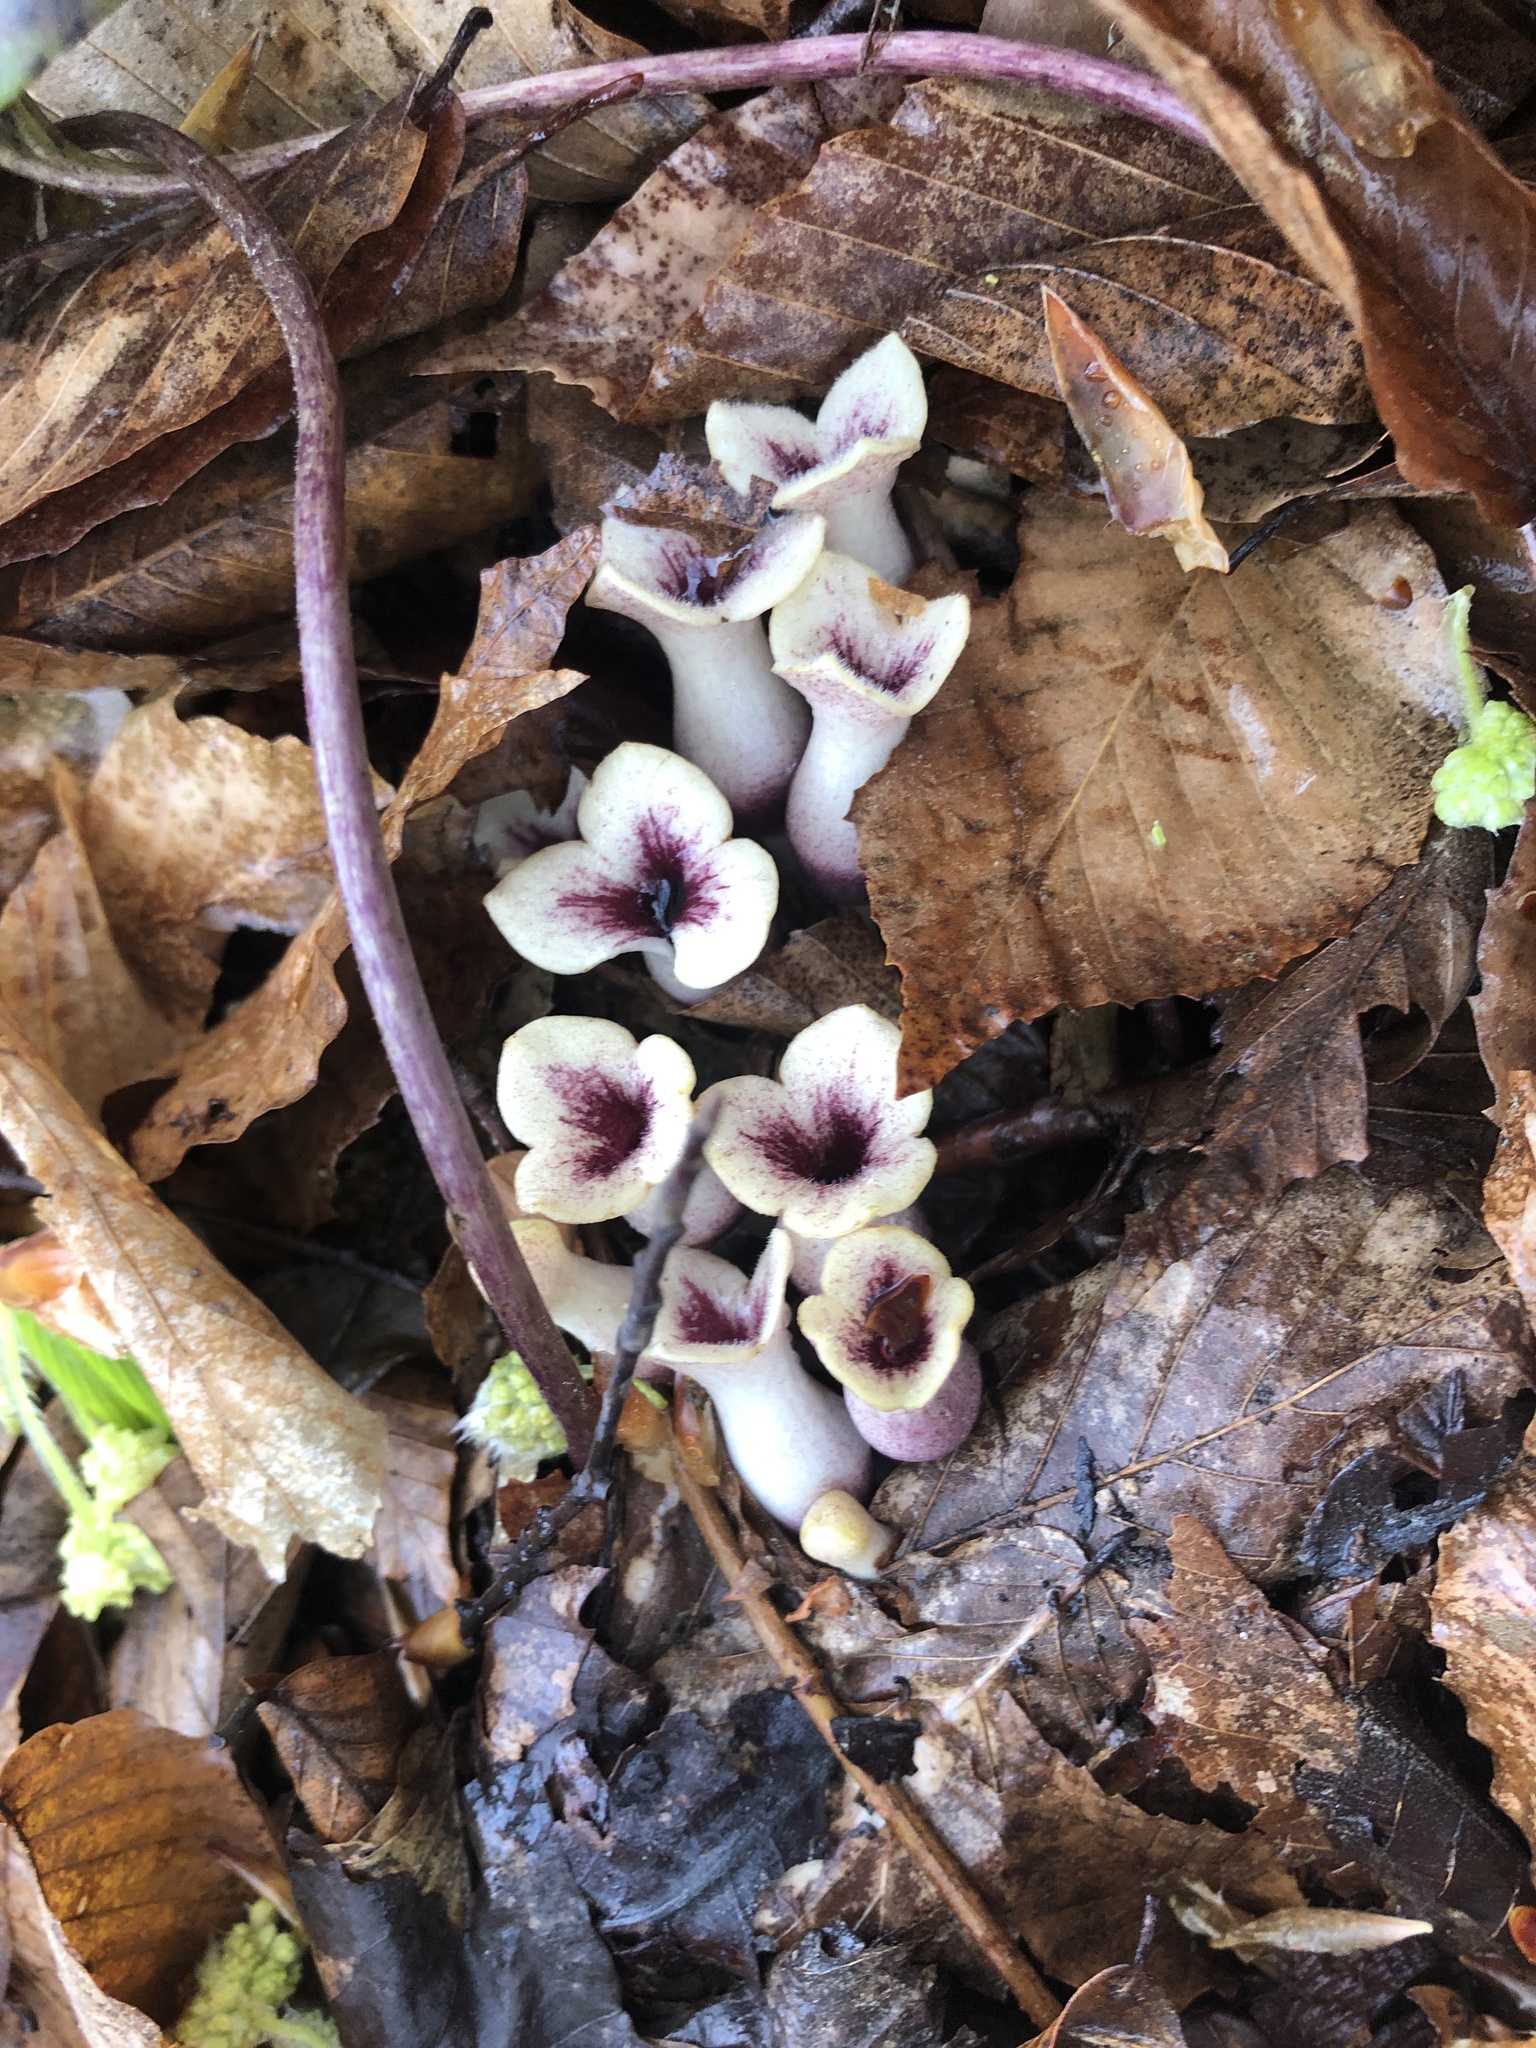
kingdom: Plantae
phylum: Tracheophyta
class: Magnoliopsida
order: Piperales
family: Aristolochiaceae
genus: Hexastylis
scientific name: Hexastylis arifolia
